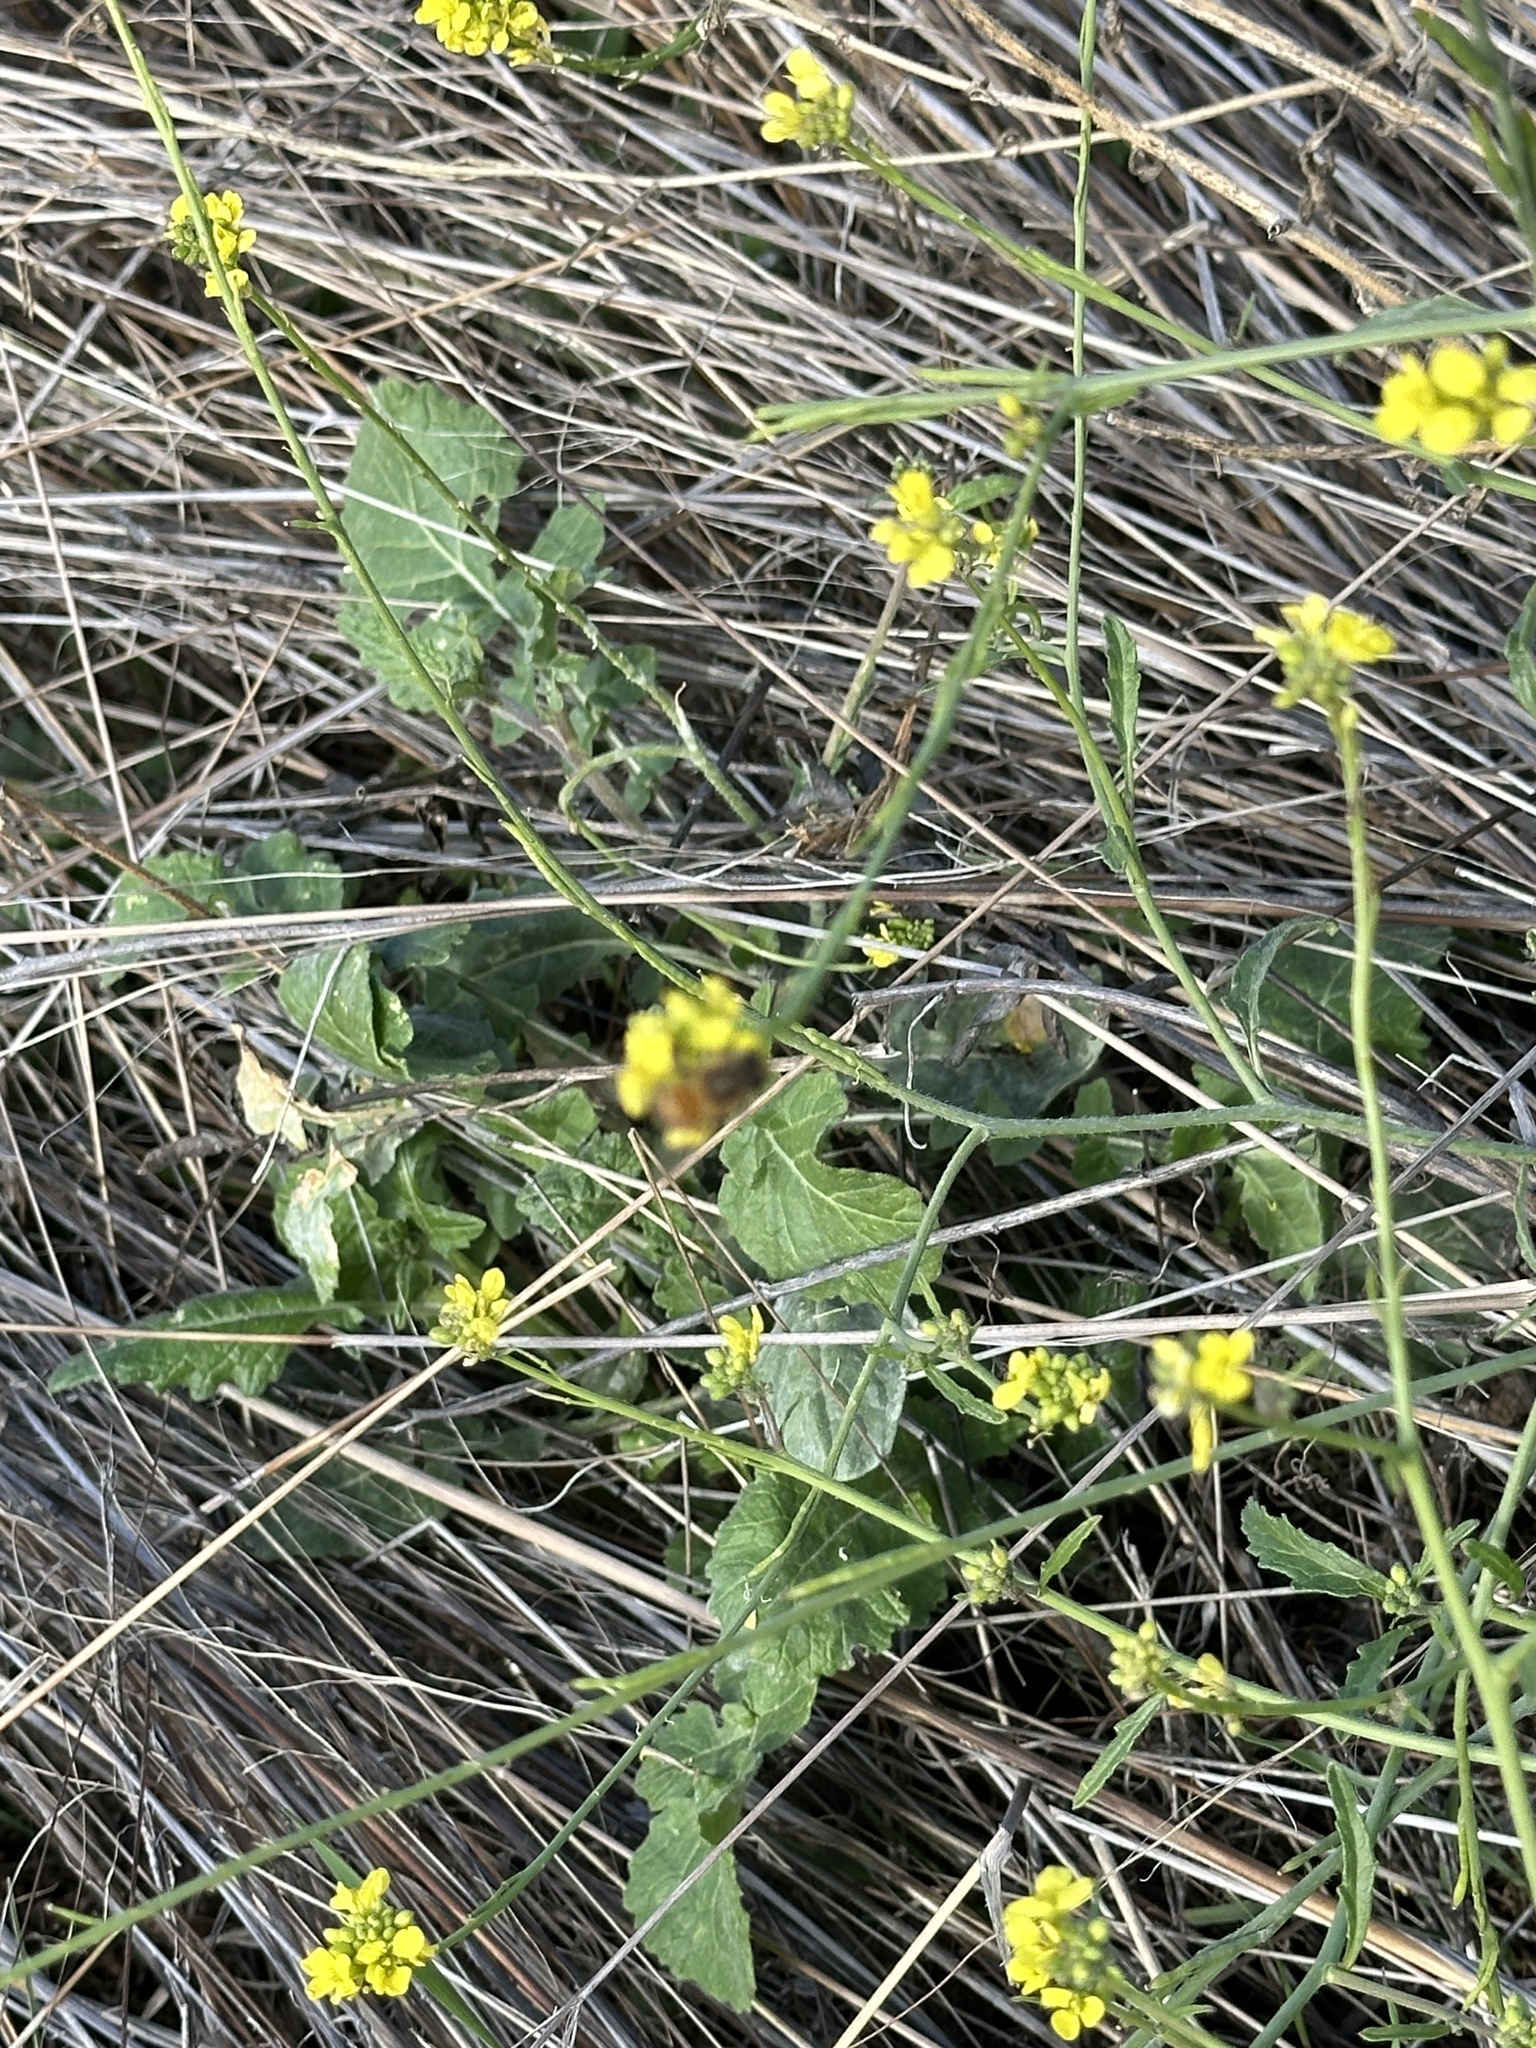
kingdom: Plantae
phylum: Tracheophyta
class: Magnoliopsida
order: Brassicales
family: Brassicaceae
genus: Hirschfeldia
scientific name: Hirschfeldia incana
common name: Hoary mustard
